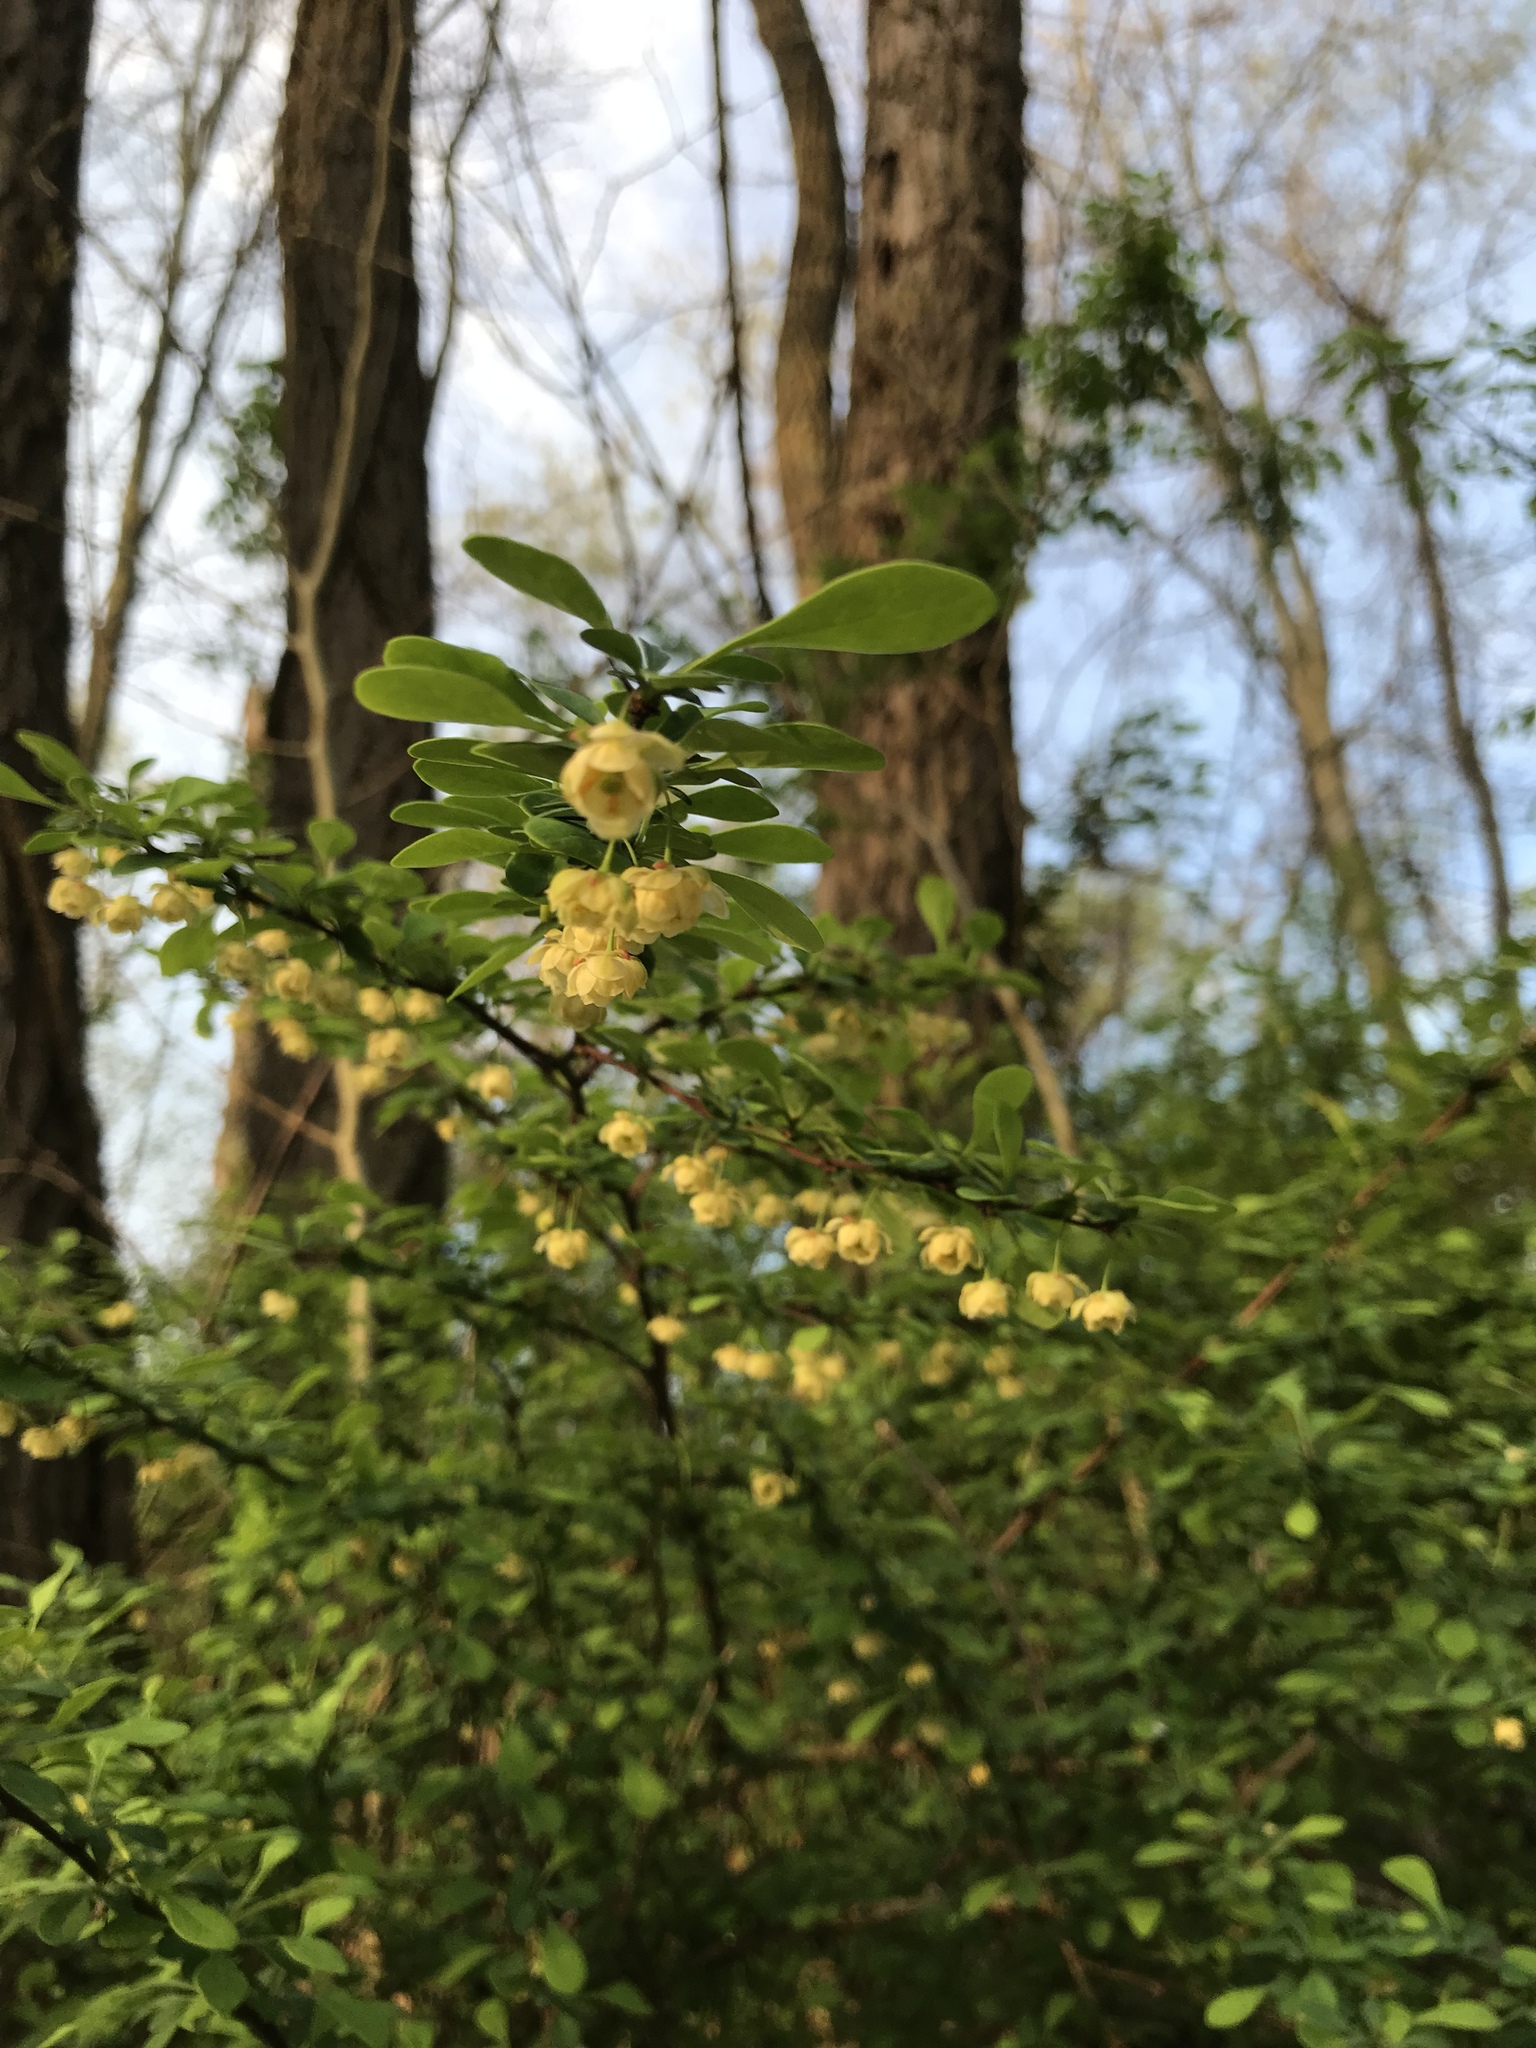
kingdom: Plantae
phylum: Tracheophyta
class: Magnoliopsida
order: Ranunculales
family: Berberidaceae
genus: Berberis
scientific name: Berberis thunbergii
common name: Japanese barberry
